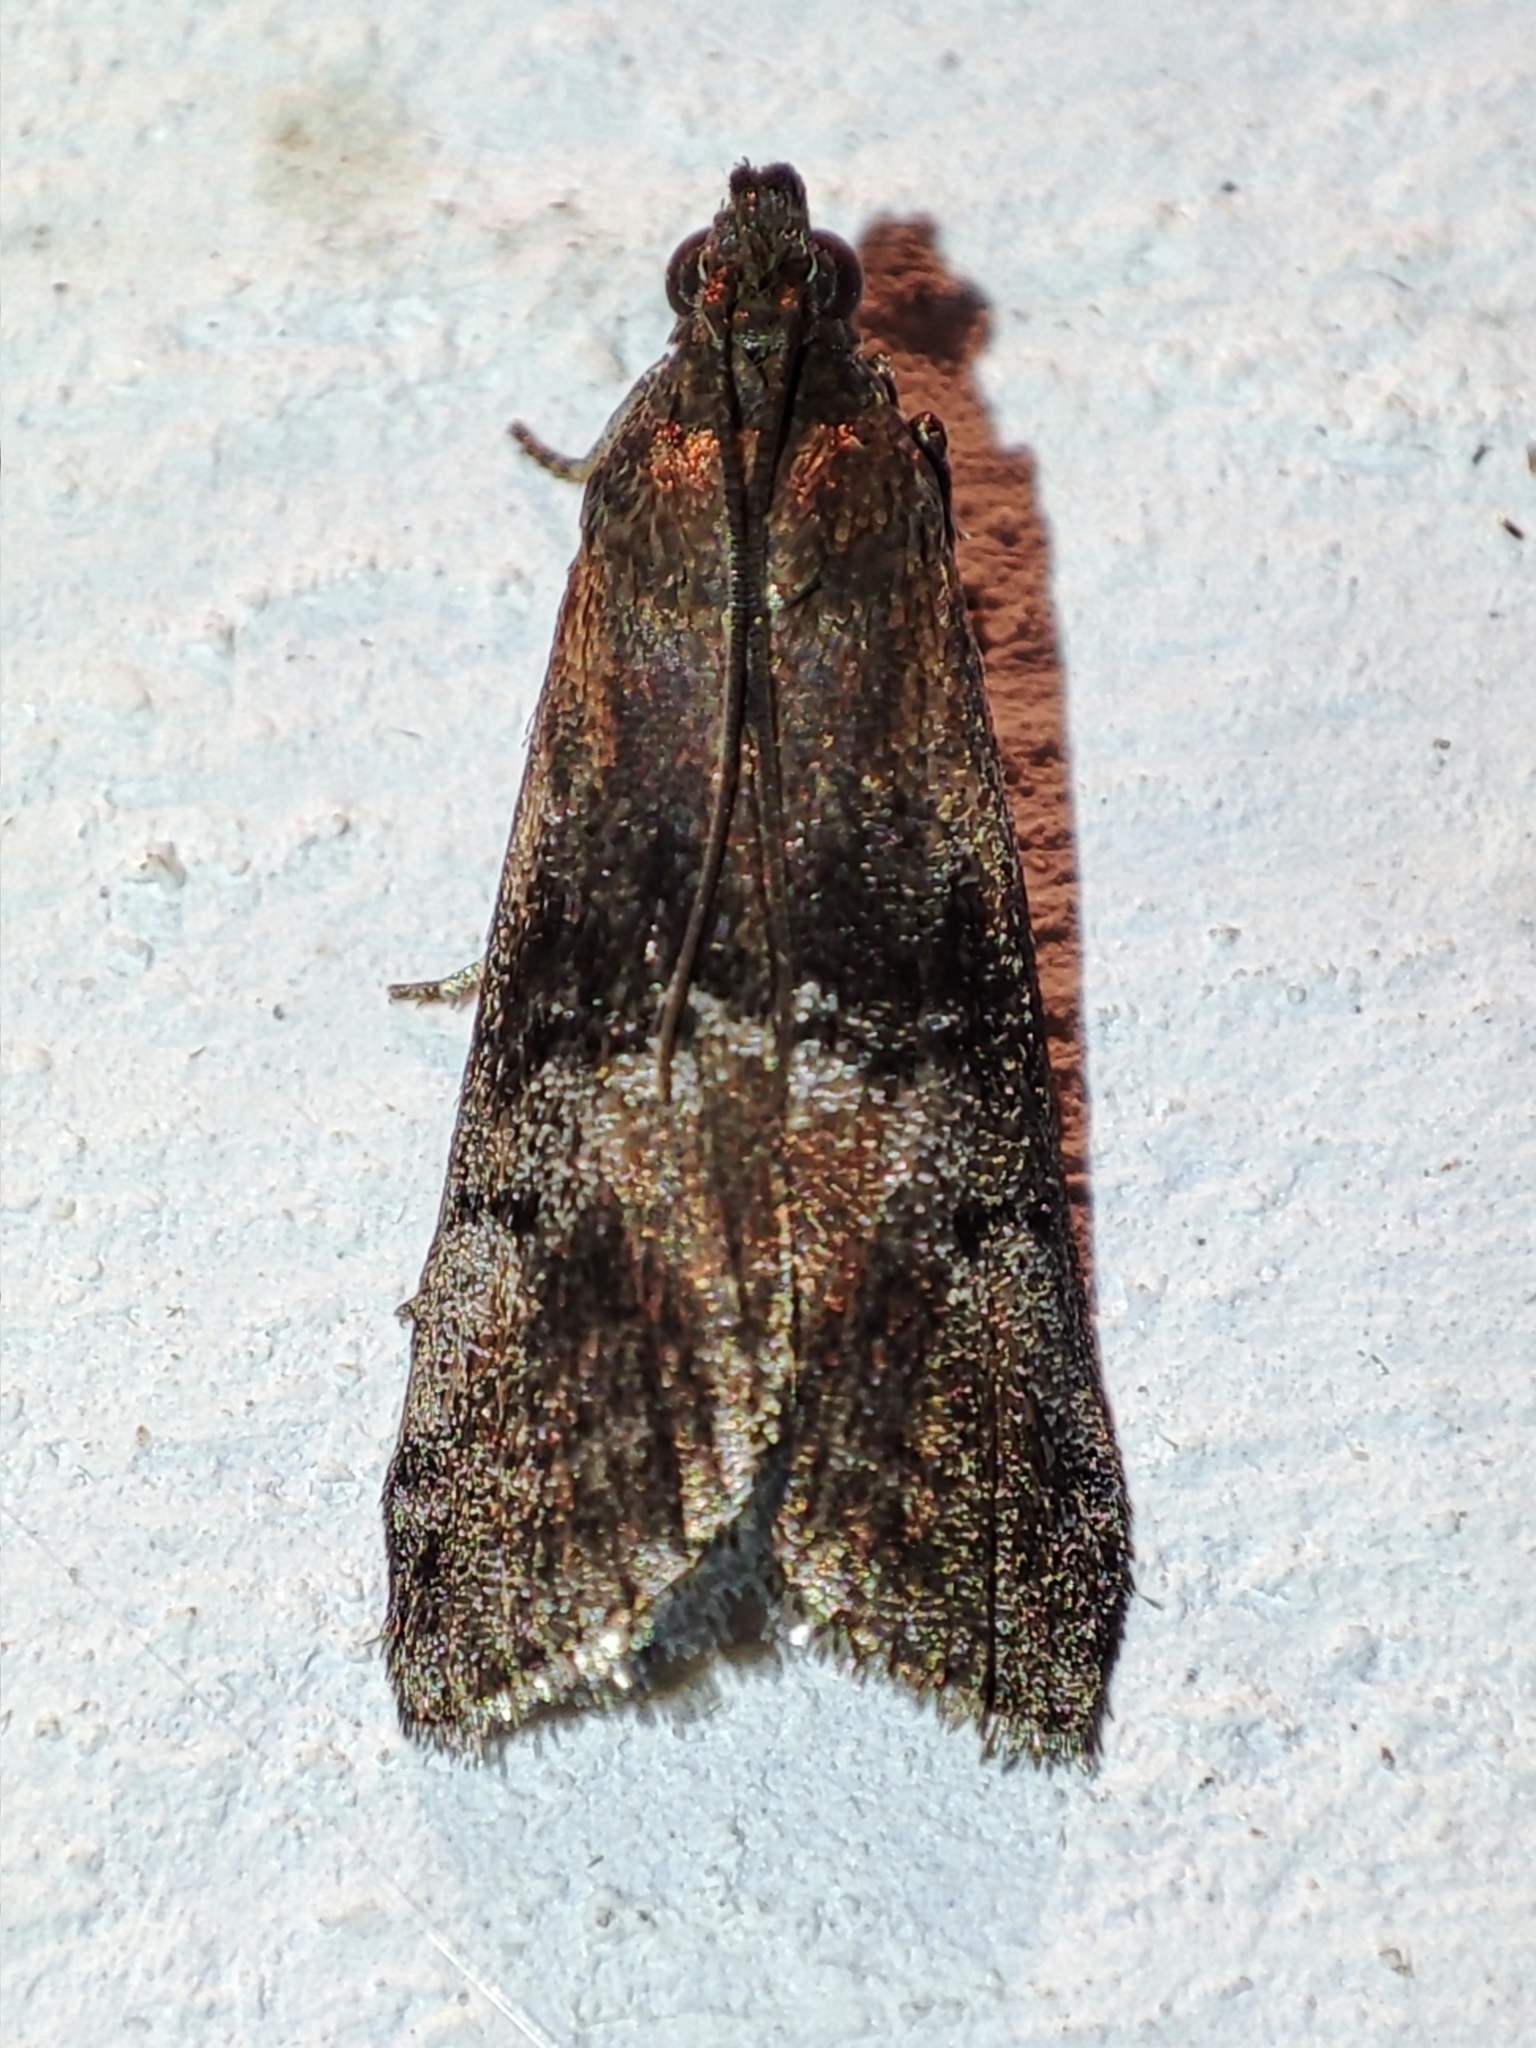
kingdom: Animalia
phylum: Arthropoda
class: Insecta
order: Lepidoptera
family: Pyralidae
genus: Rhodophaea
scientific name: Rhodophaea formosa
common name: Beautiful knot-horn
